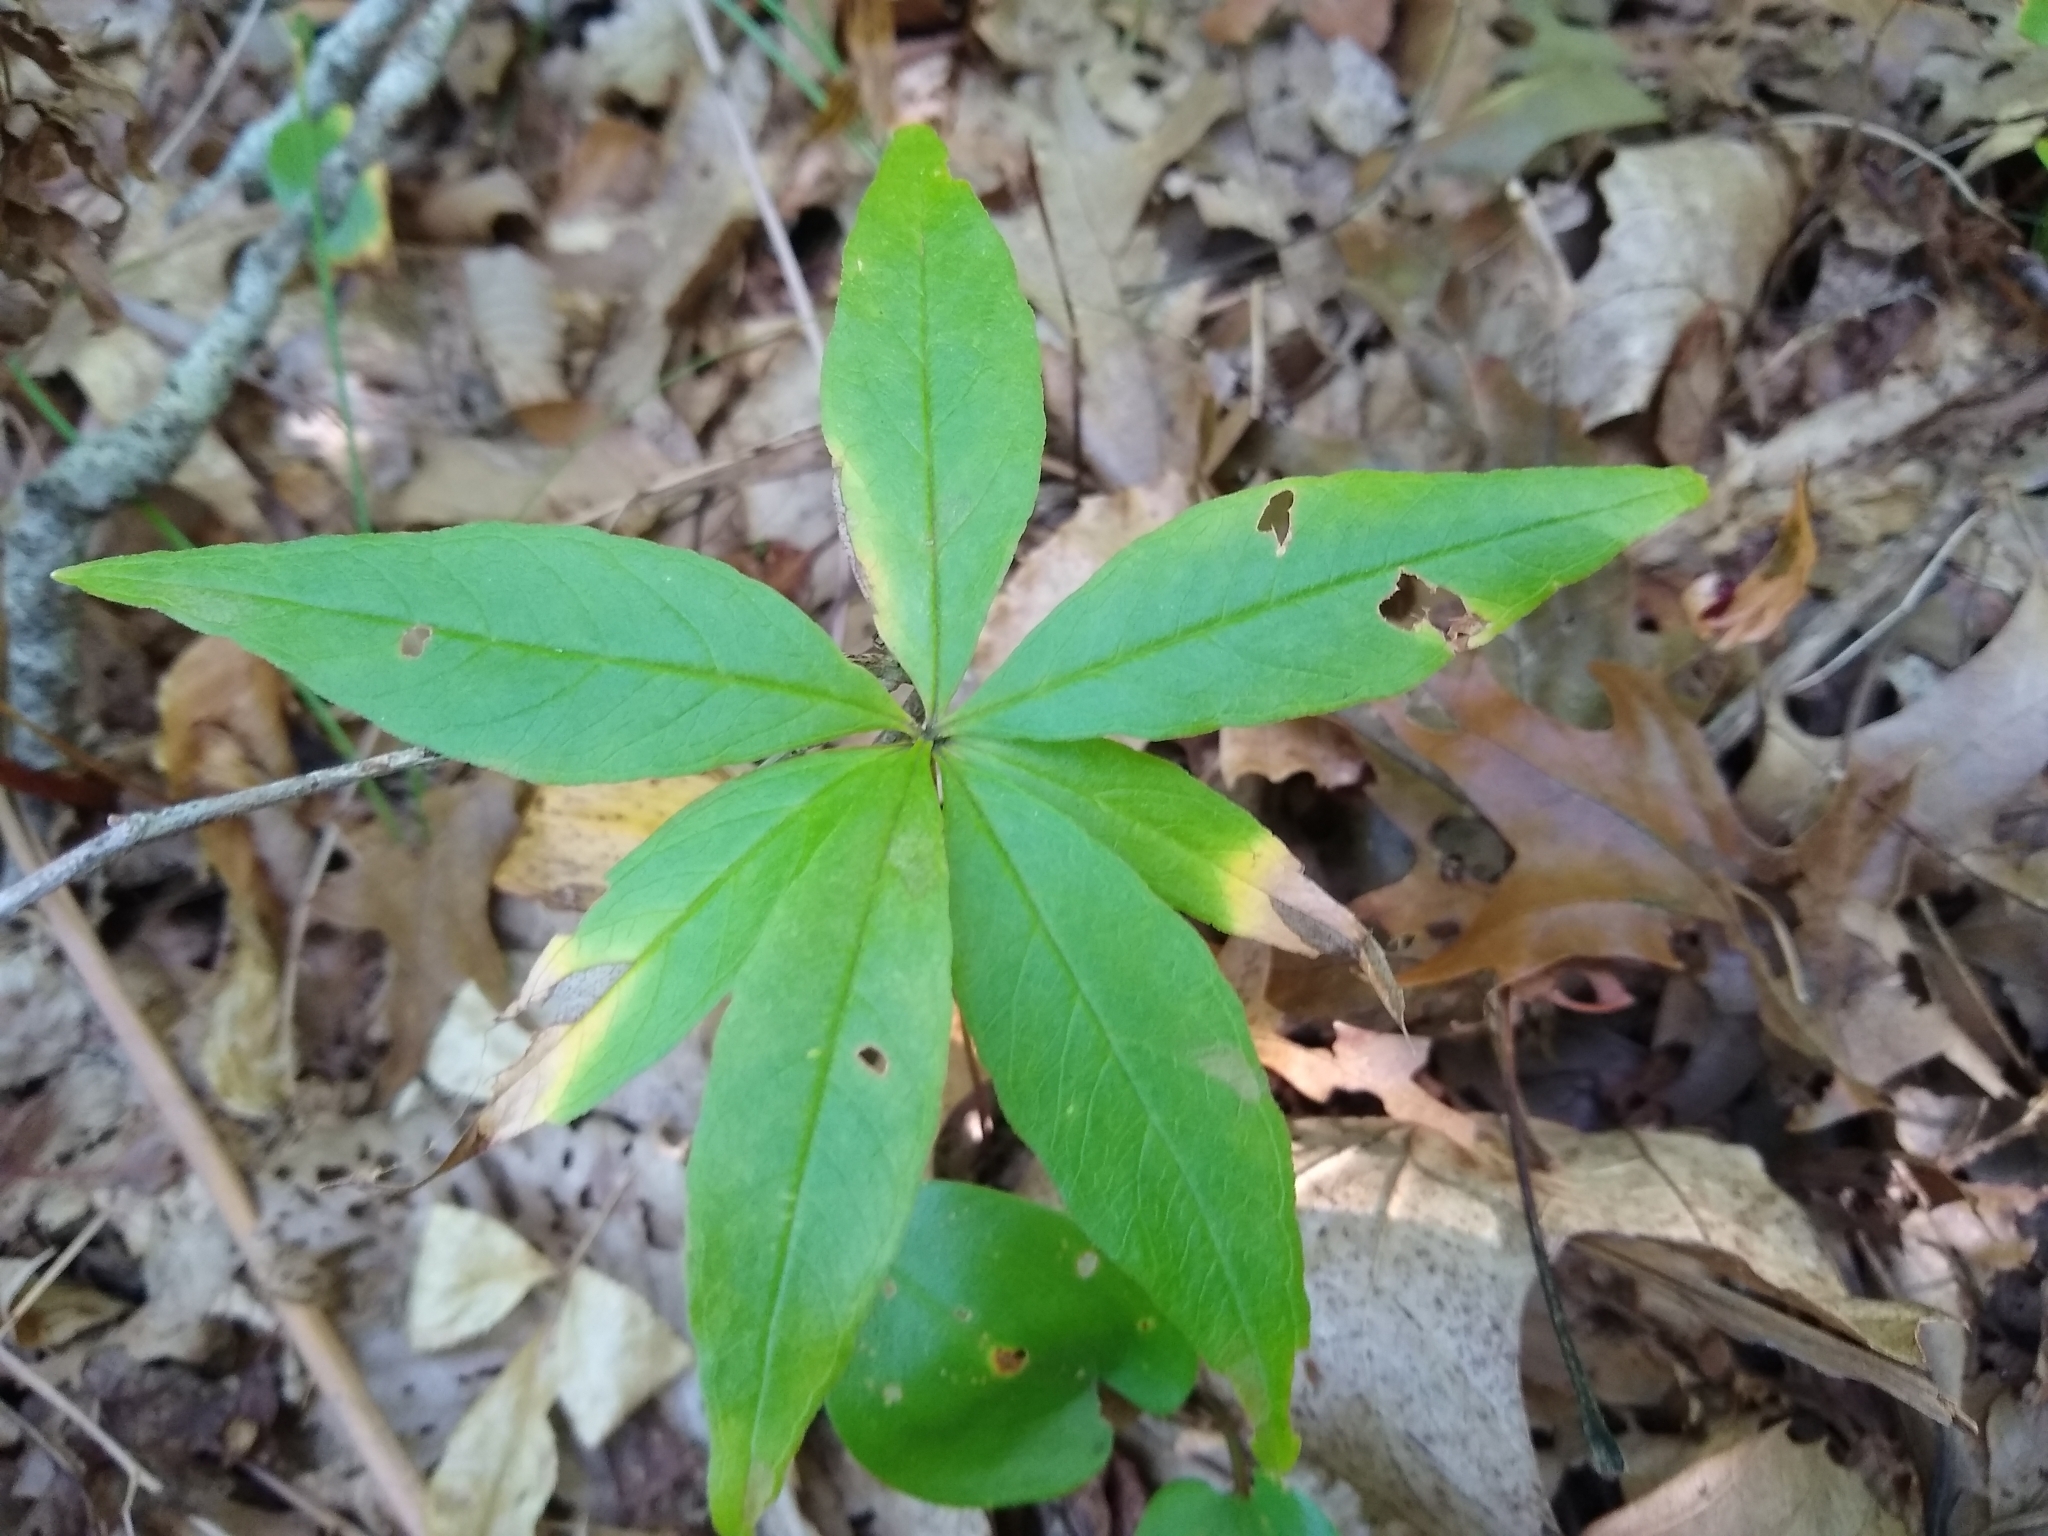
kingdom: Plantae
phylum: Tracheophyta
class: Magnoliopsida
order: Ericales
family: Primulaceae
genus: Lysimachia
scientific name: Lysimachia borealis
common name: American starflower
